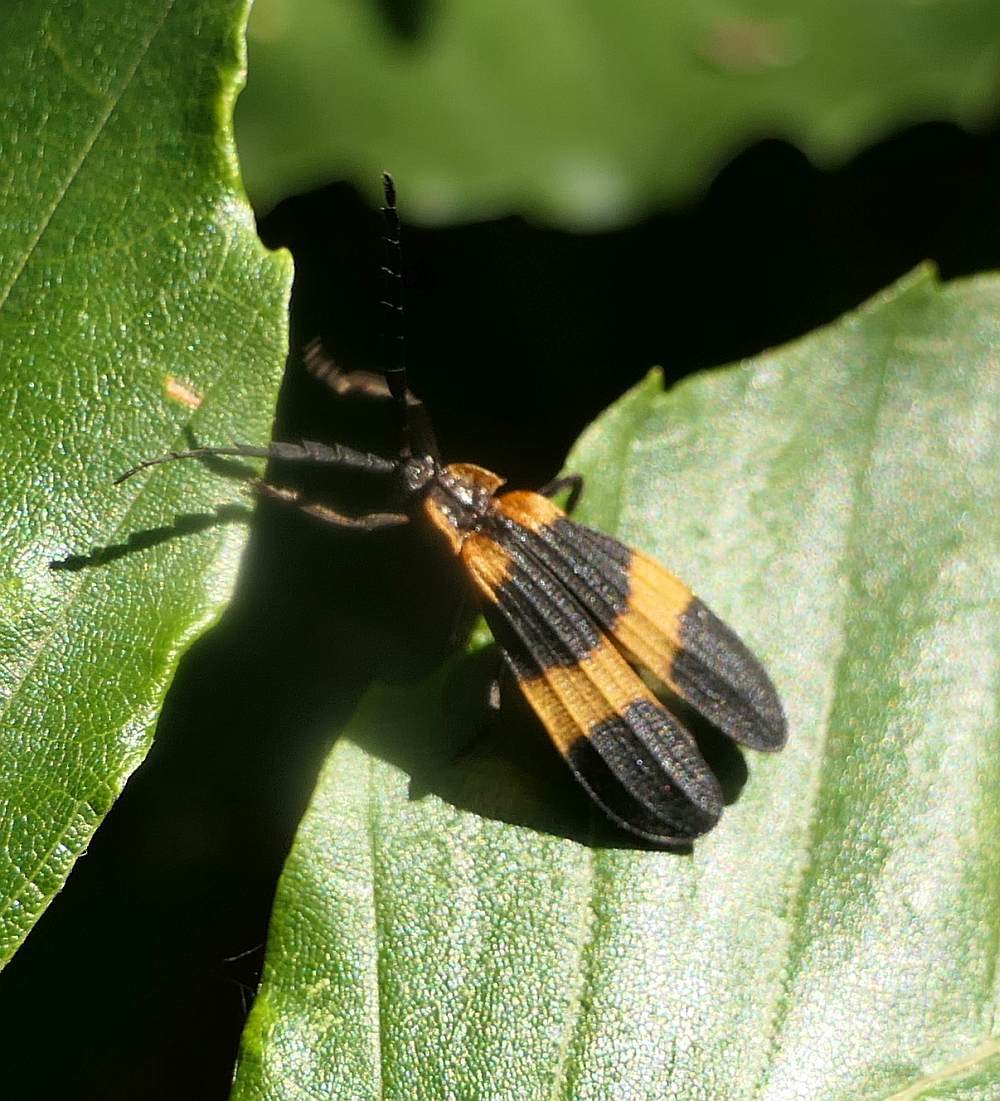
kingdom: Animalia
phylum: Arthropoda
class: Insecta
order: Coleoptera
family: Lycidae
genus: Calopteron
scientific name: Calopteron reticulatum
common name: Banded net-winged beetle
